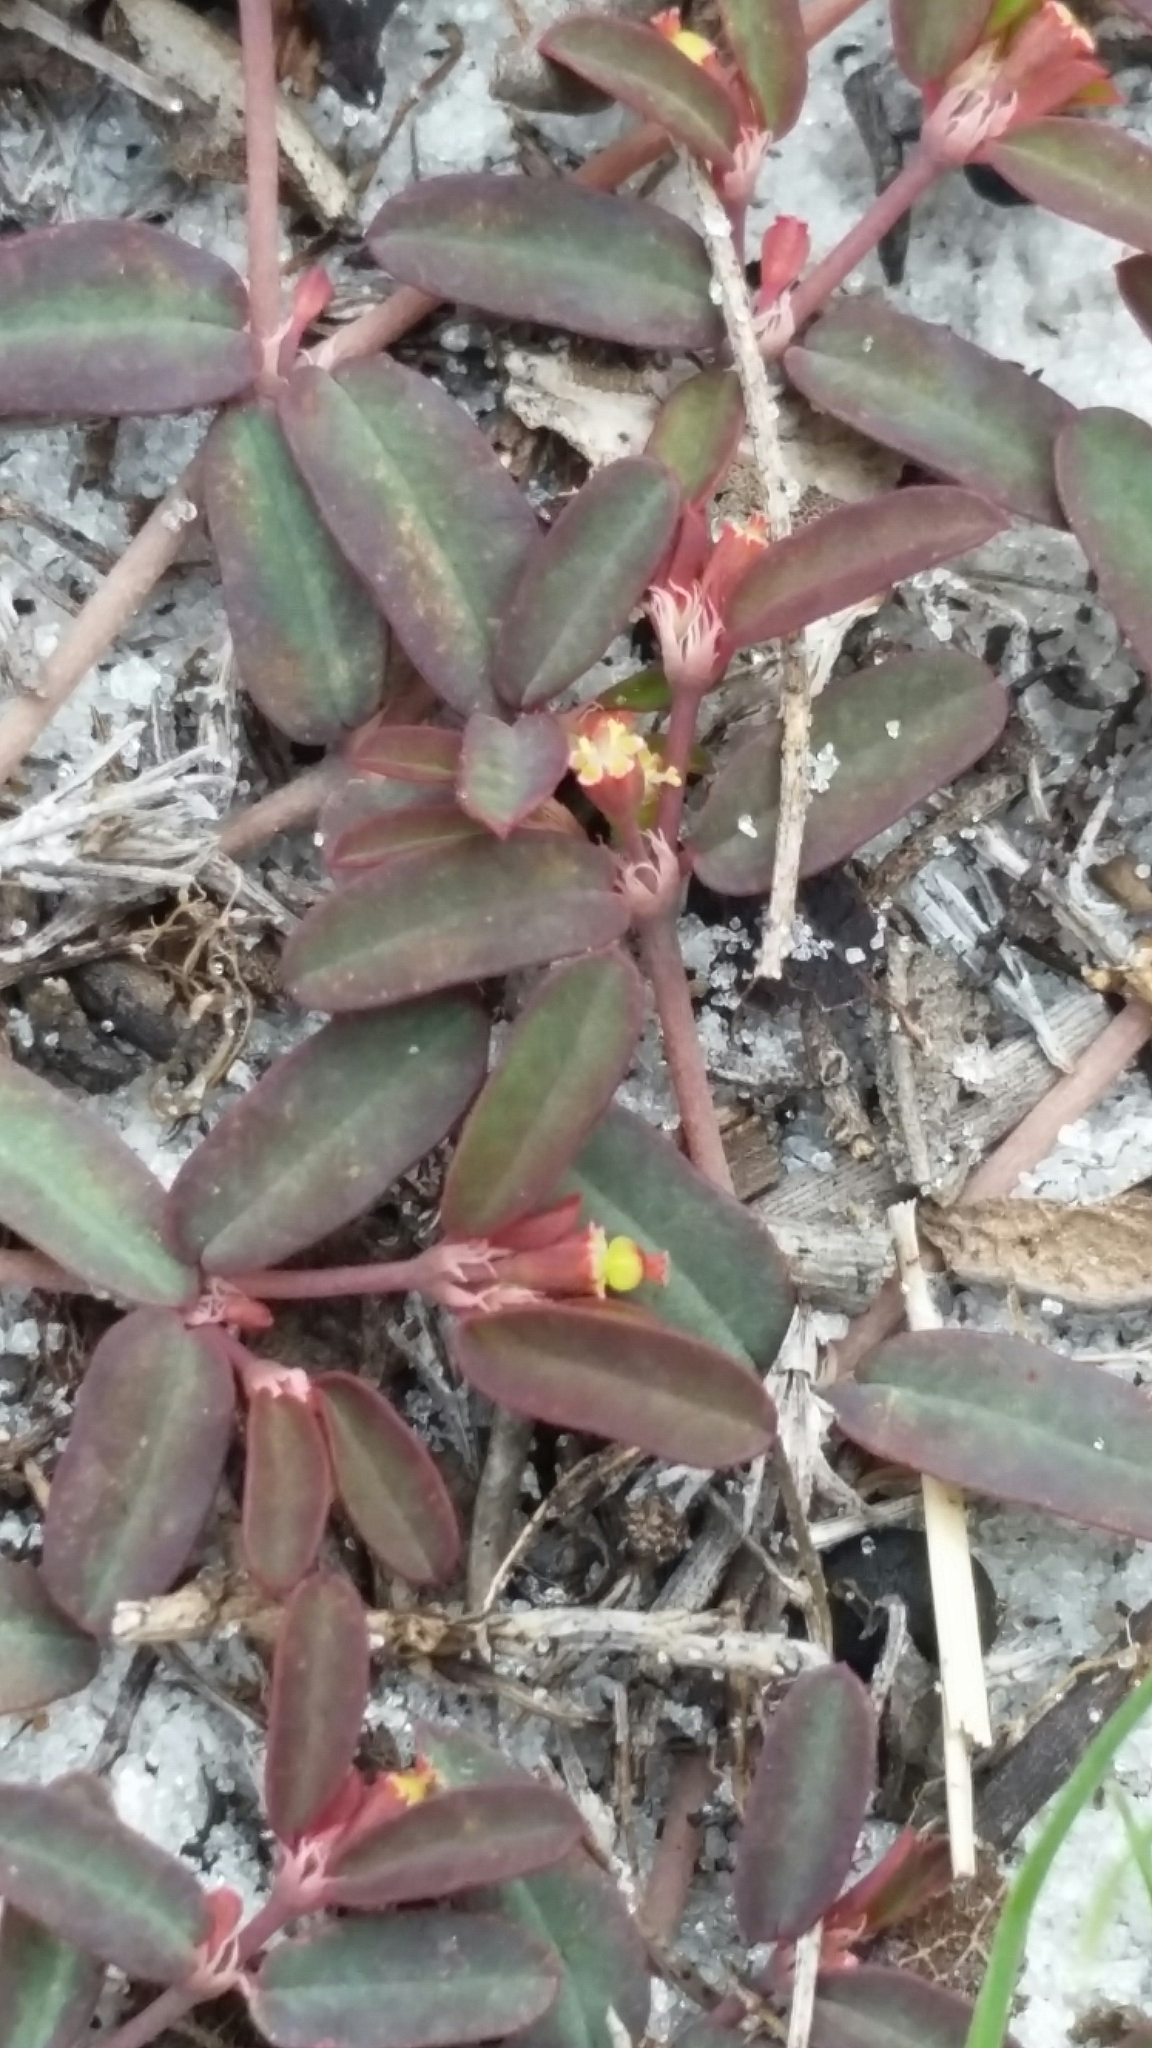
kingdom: Plantae
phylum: Tracheophyta
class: Magnoliopsida
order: Malpighiales
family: Euphorbiaceae
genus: Euphorbia
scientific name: Euphorbia cumulicola
